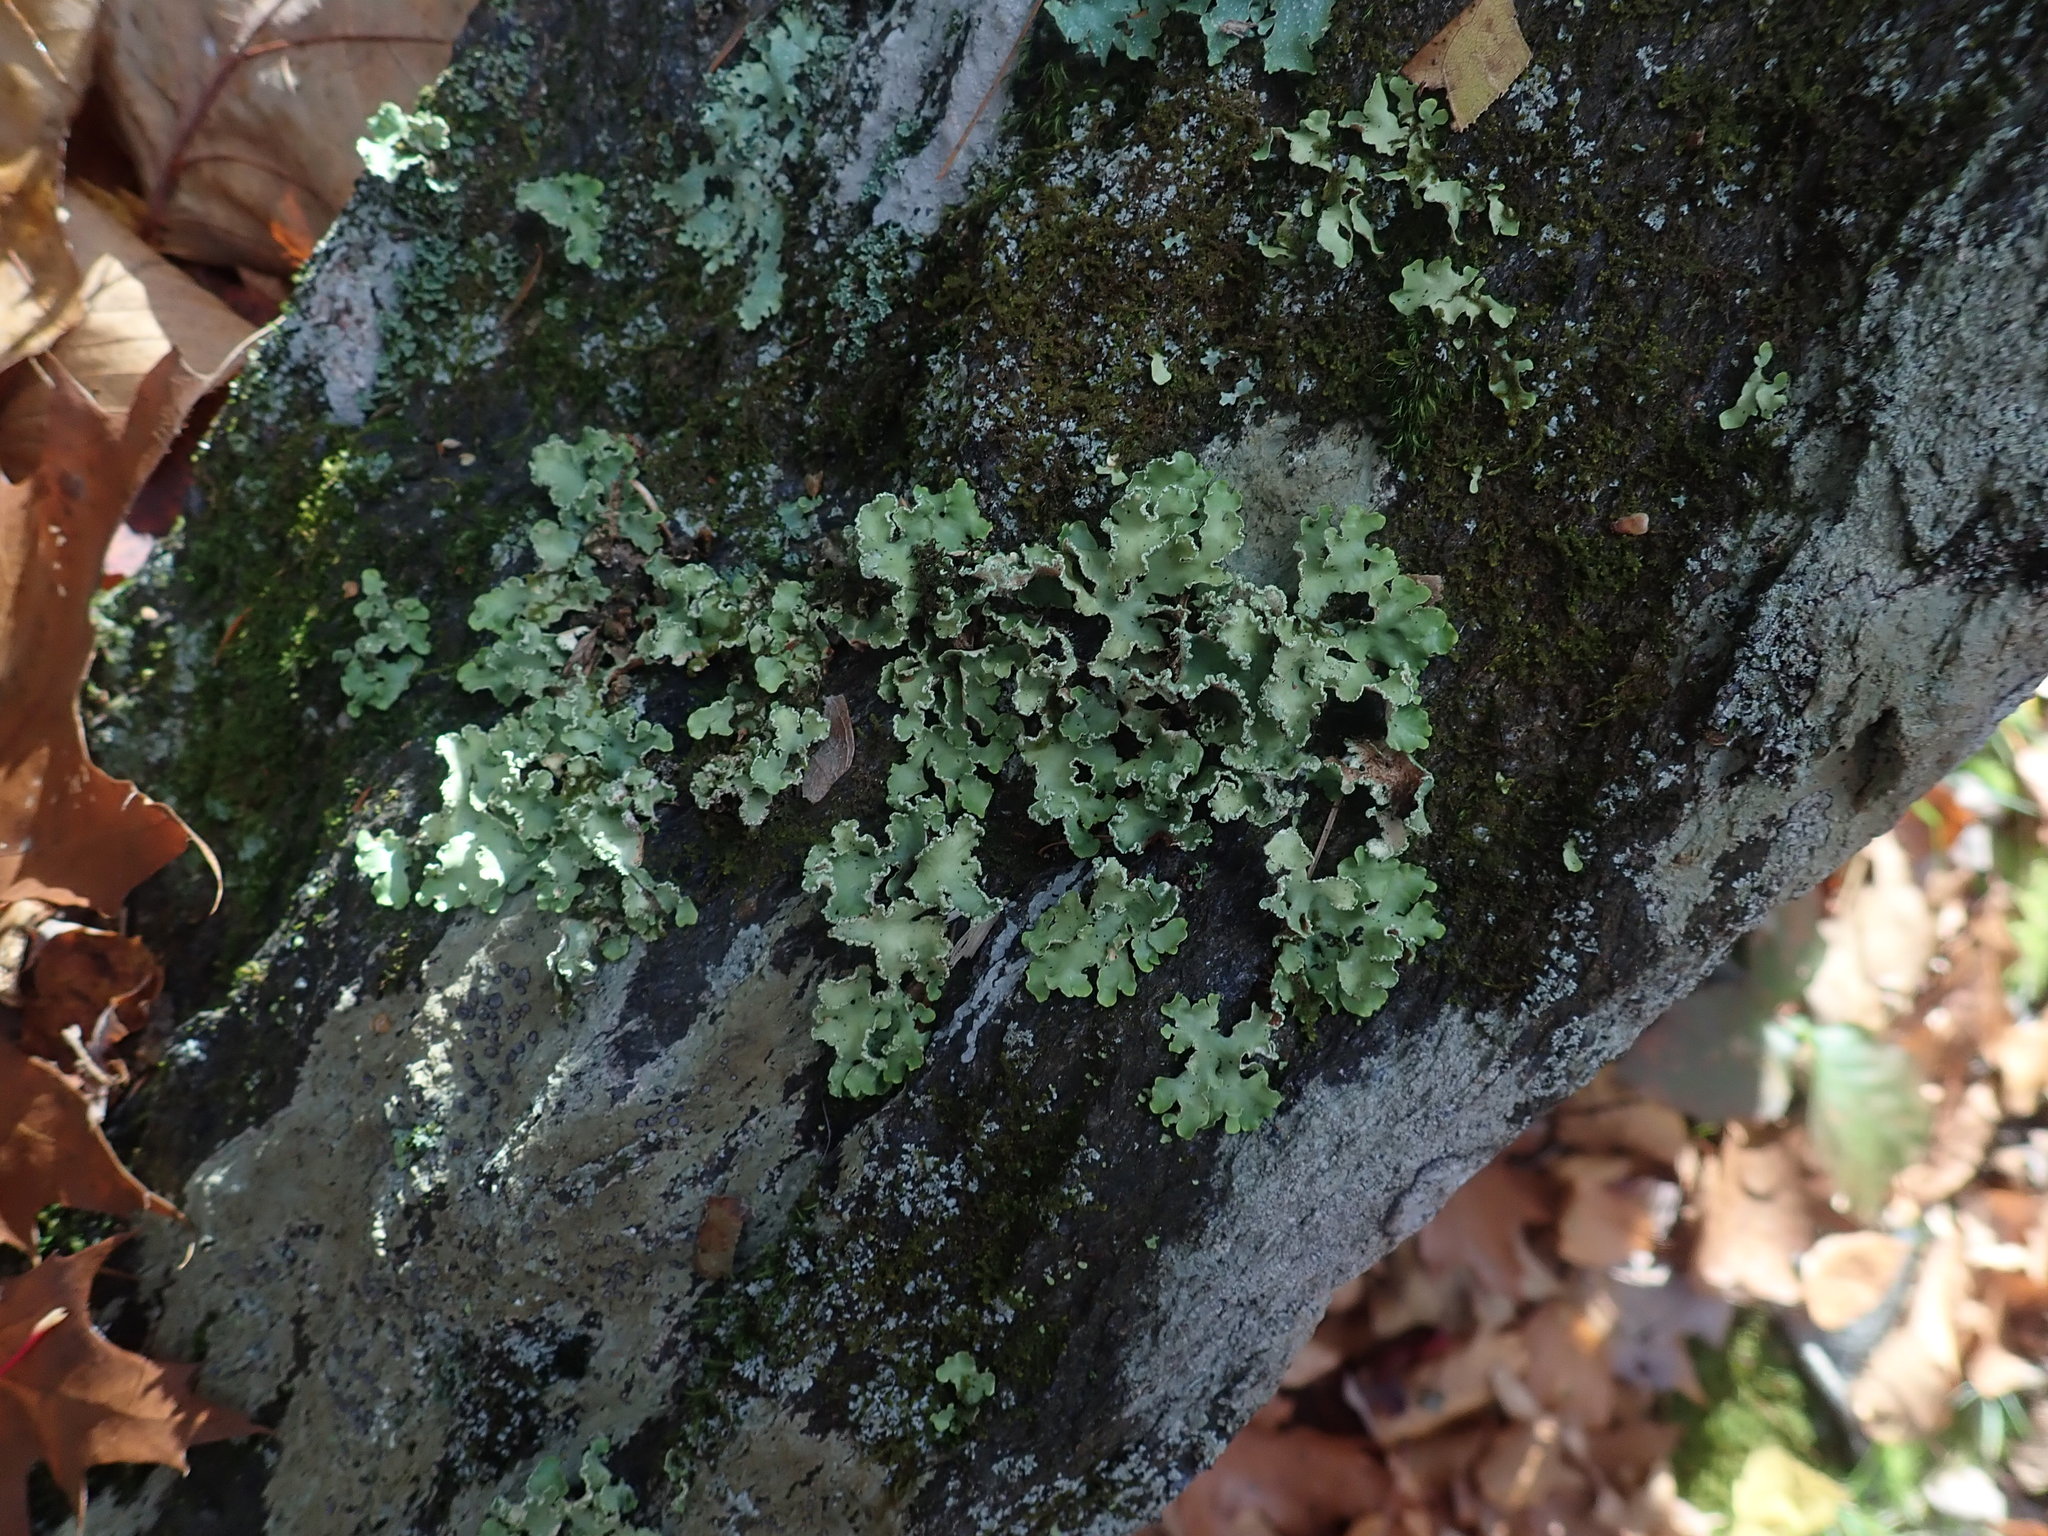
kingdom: Fungi
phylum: Ascomycota
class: Lecanoromycetes
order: Lecanorales
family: Parmeliaceae
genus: Usnocetraria
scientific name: Usnocetraria oakesiana
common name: Yellow ribbon lichen
